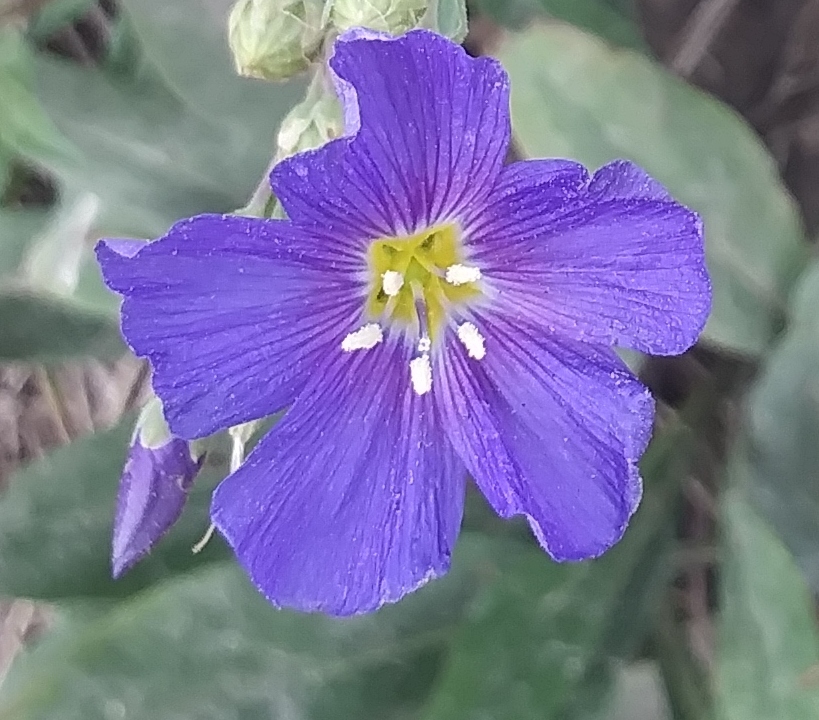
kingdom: Plantae
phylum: Tracheophyta
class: Magnoliopsida
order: Malpighiales
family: Linaceae
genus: Linum
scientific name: Linum lewisii
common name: Prairie flax
